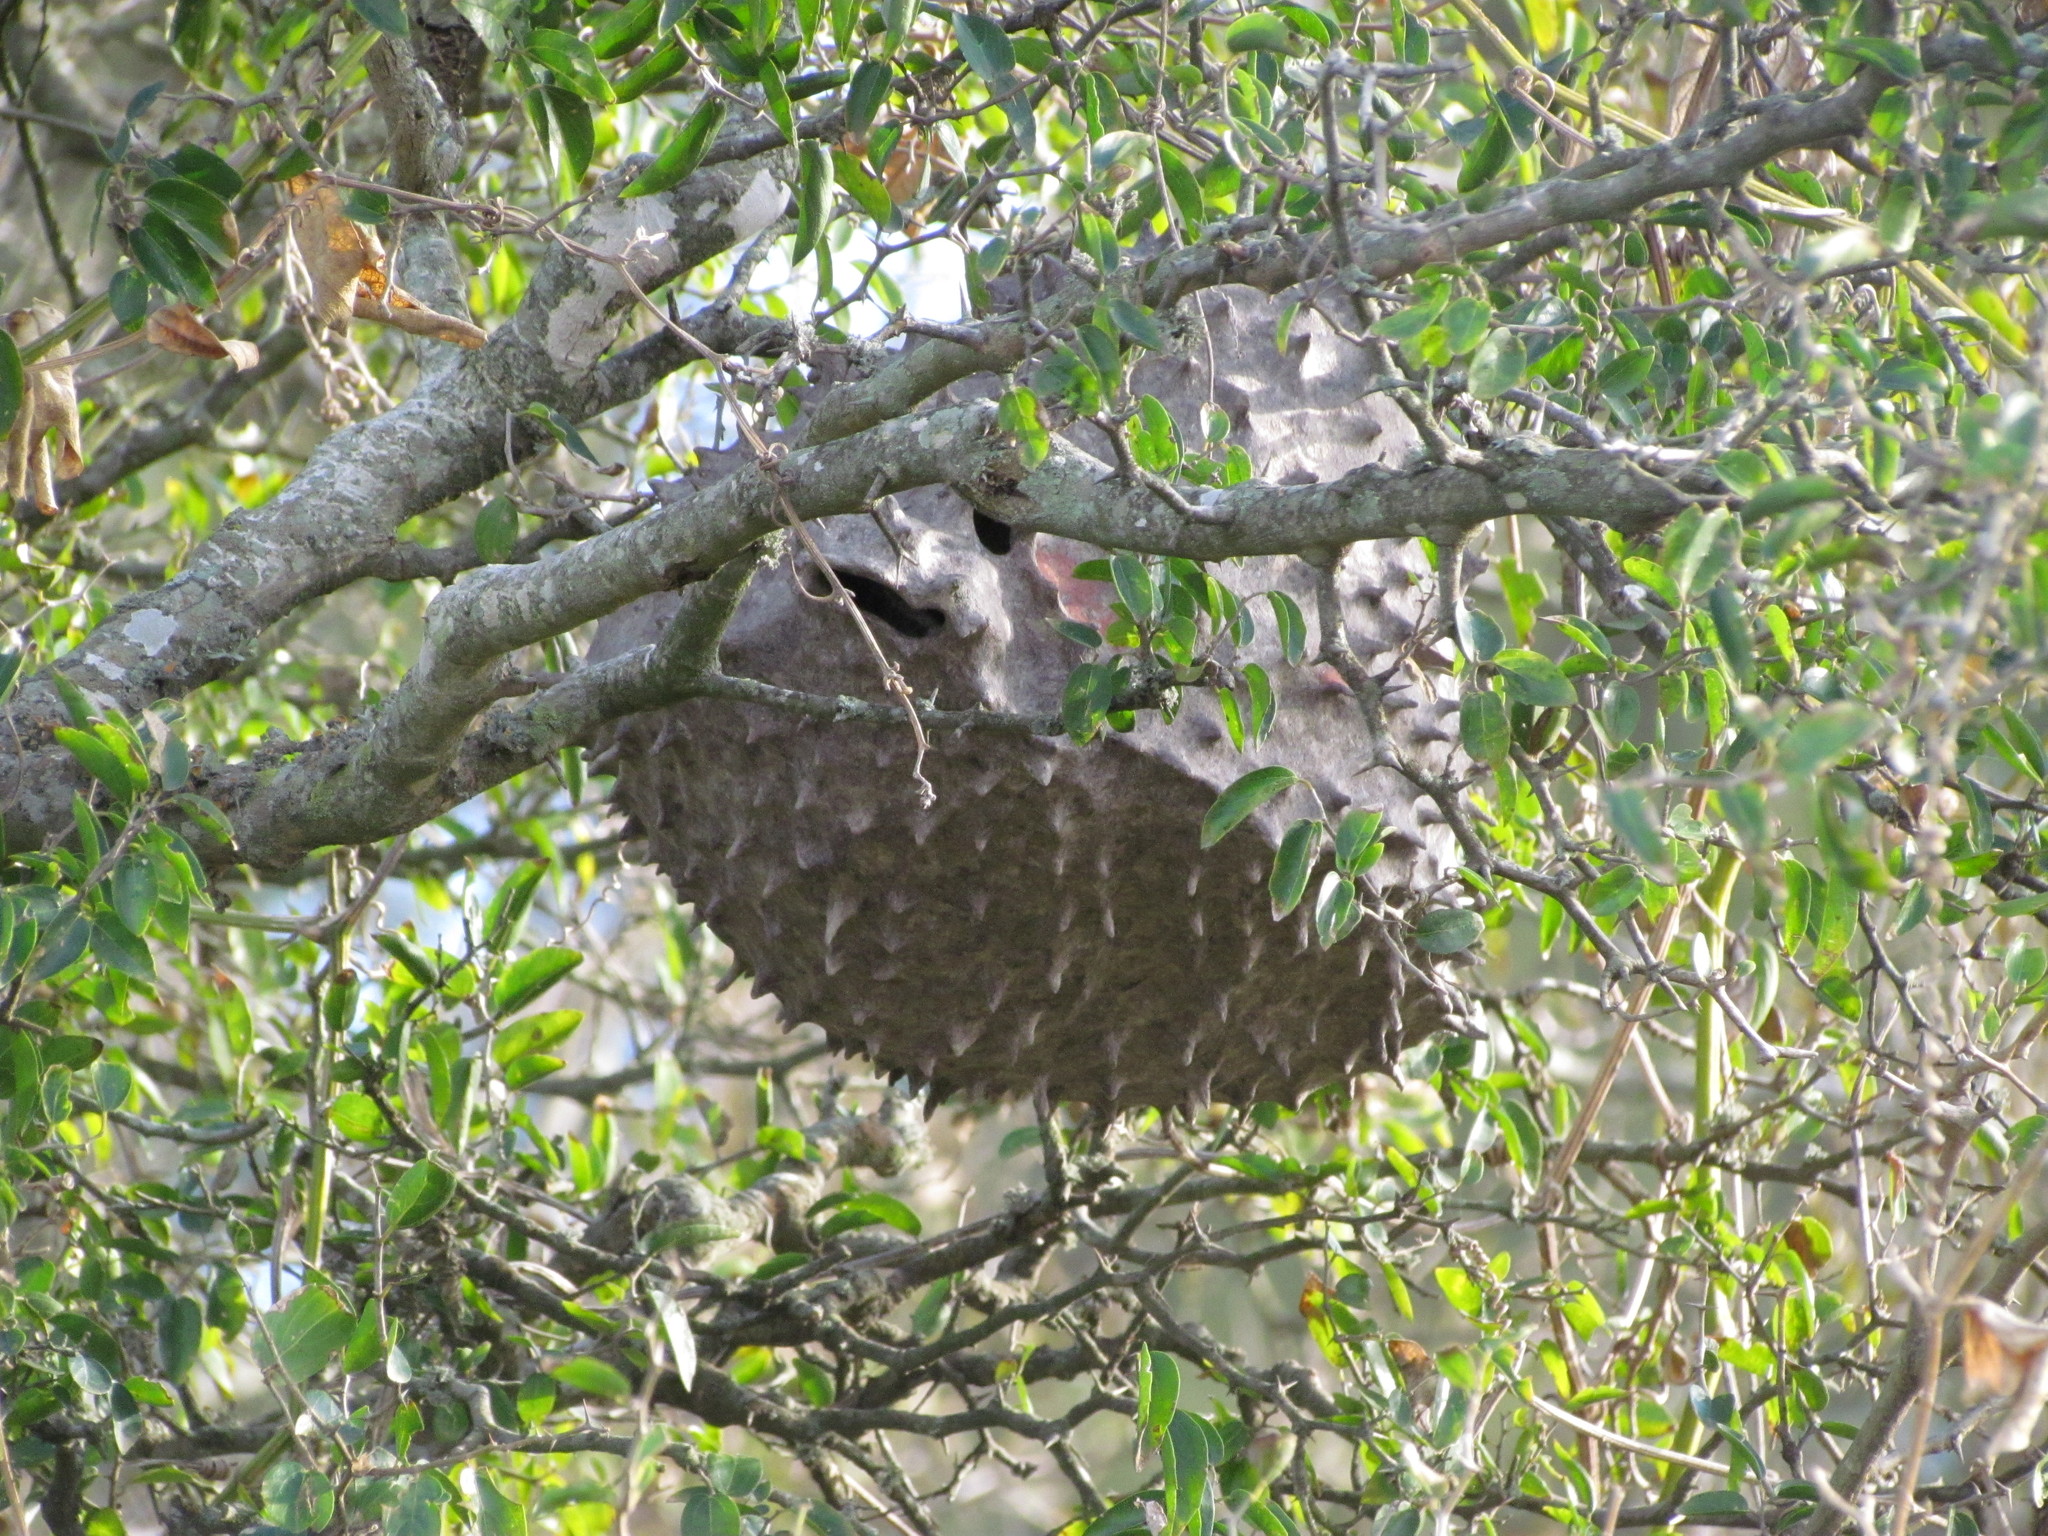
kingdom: Animalia
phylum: Arthropoda
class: Insecta
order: Hymenoptera
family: Eumenidae
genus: Polybia
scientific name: Polybia scutellaris
